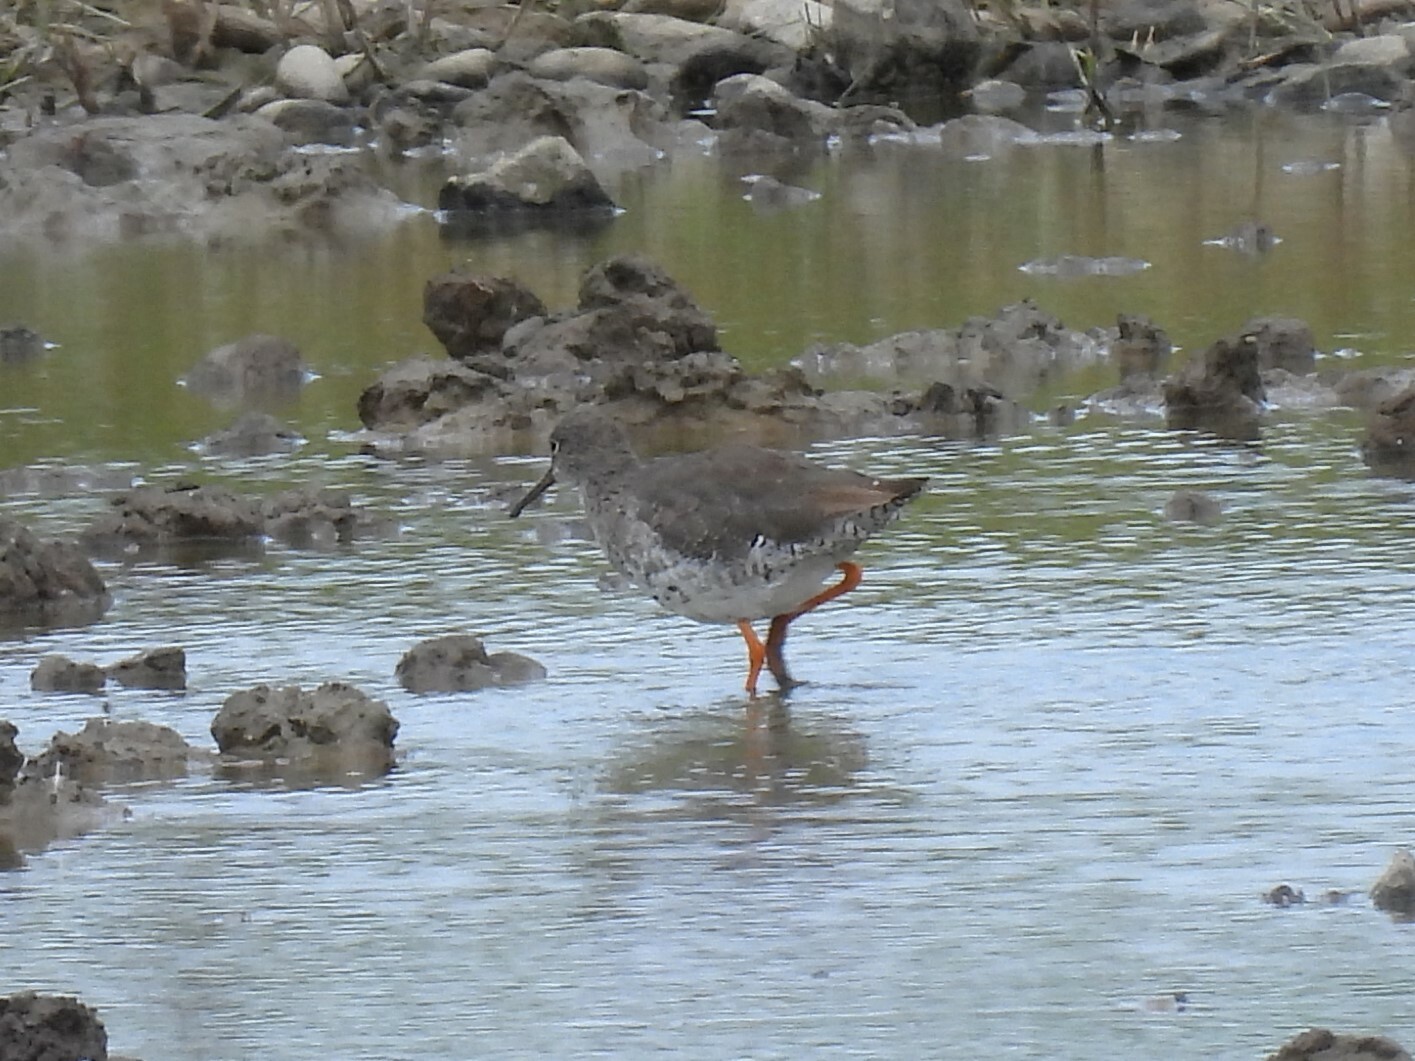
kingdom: Animalia
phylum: Chordata
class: Aves
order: Charadriiformes
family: Scolopacidae
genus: Tringa
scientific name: Tringa totanus
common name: Common redshank
